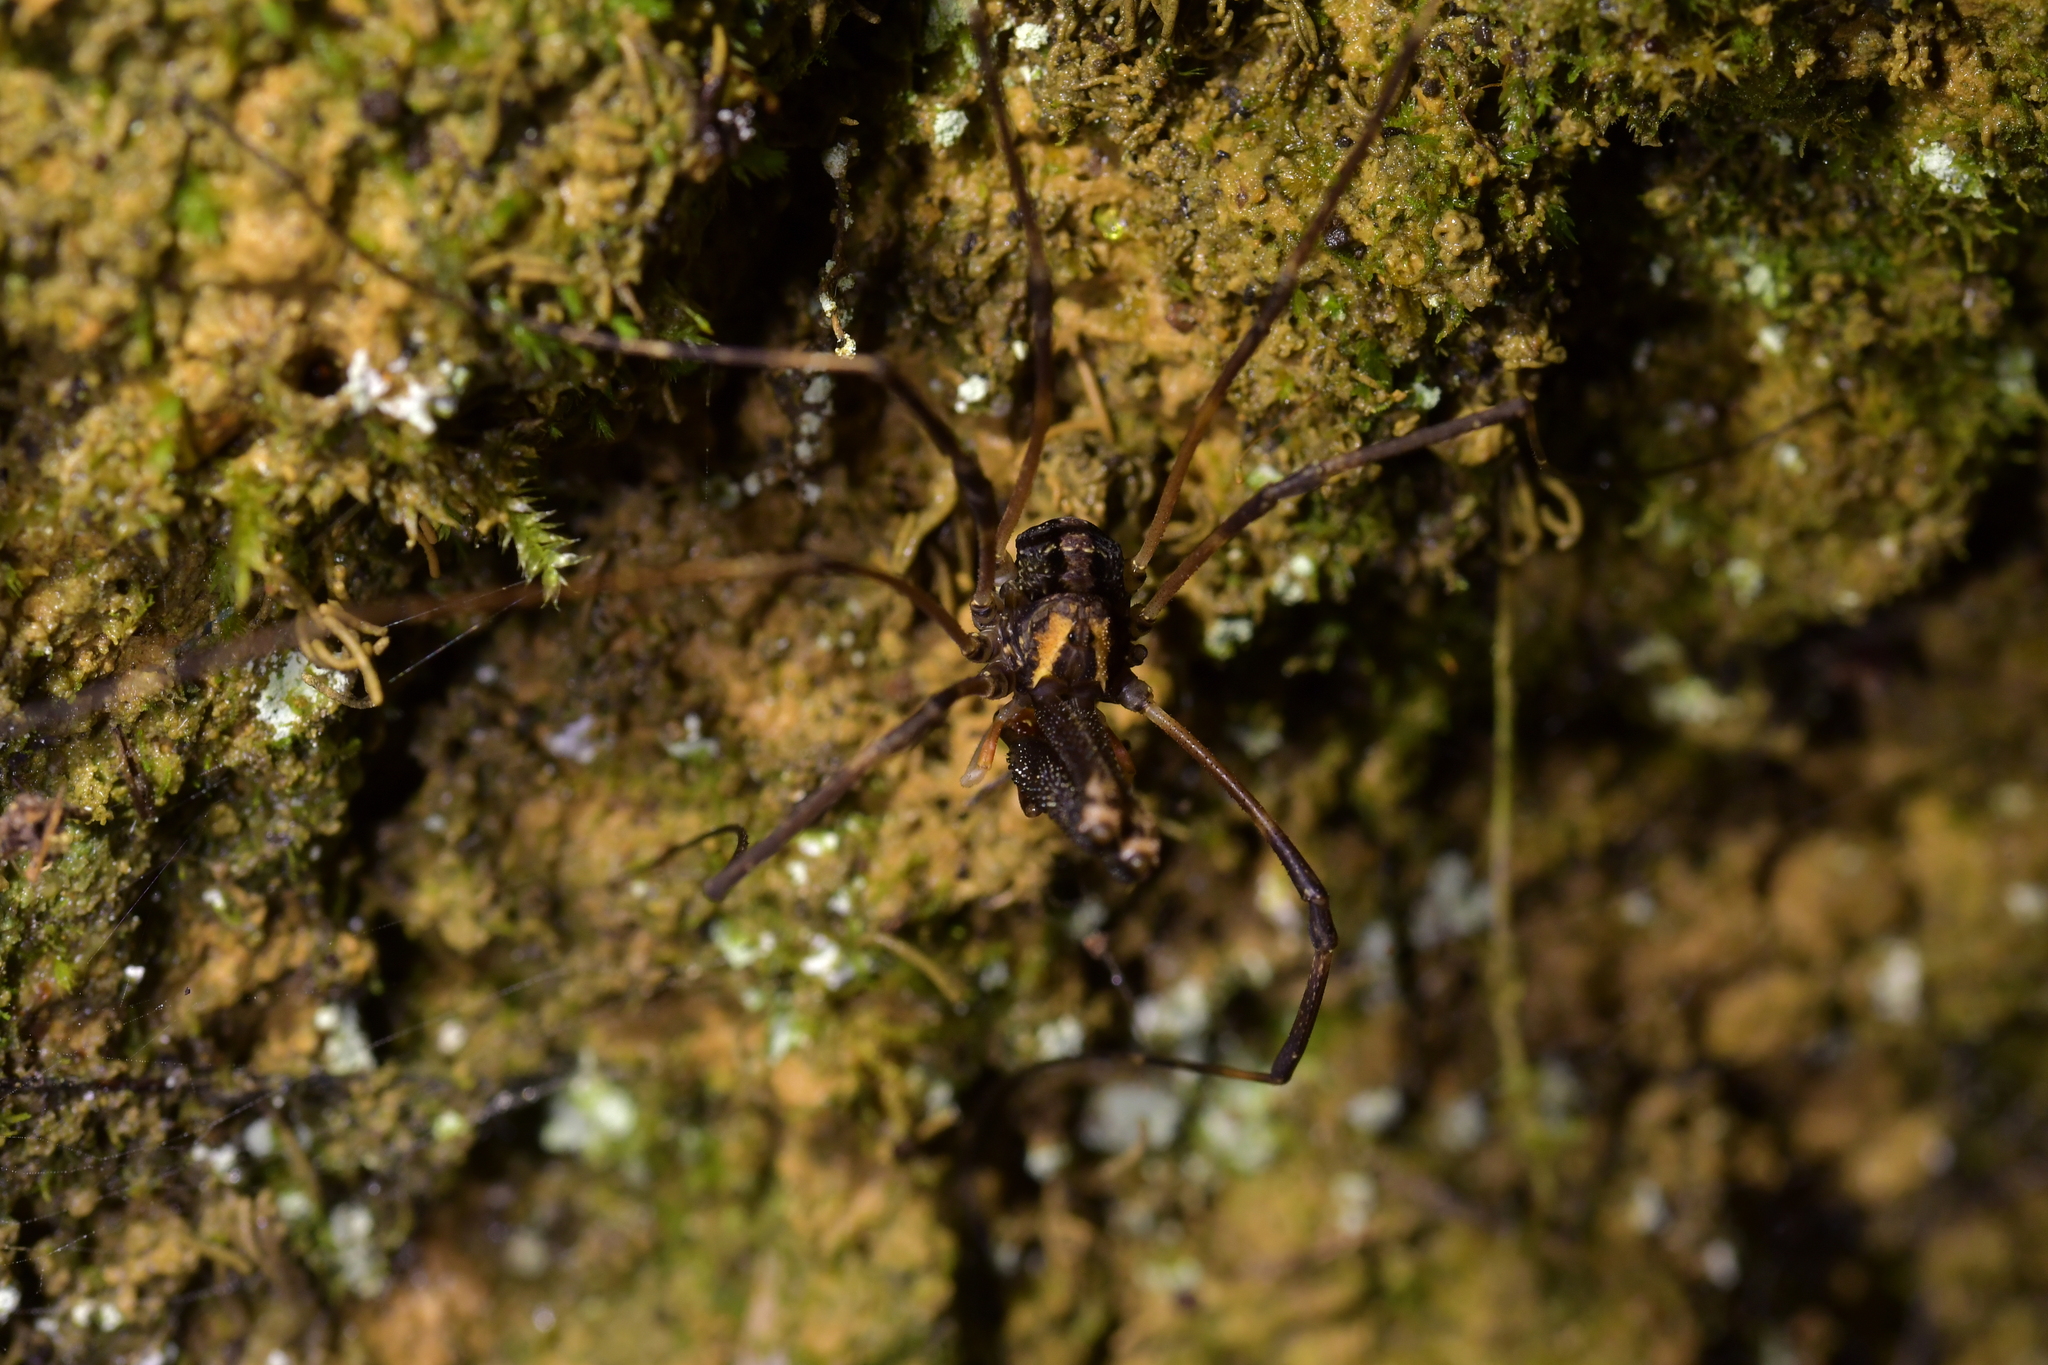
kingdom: Animalia
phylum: Arthropoda
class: Arachnida
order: Opiliones
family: Neopilionidae
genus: Forsteropsalis
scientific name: Forsteropsalis inconstans
